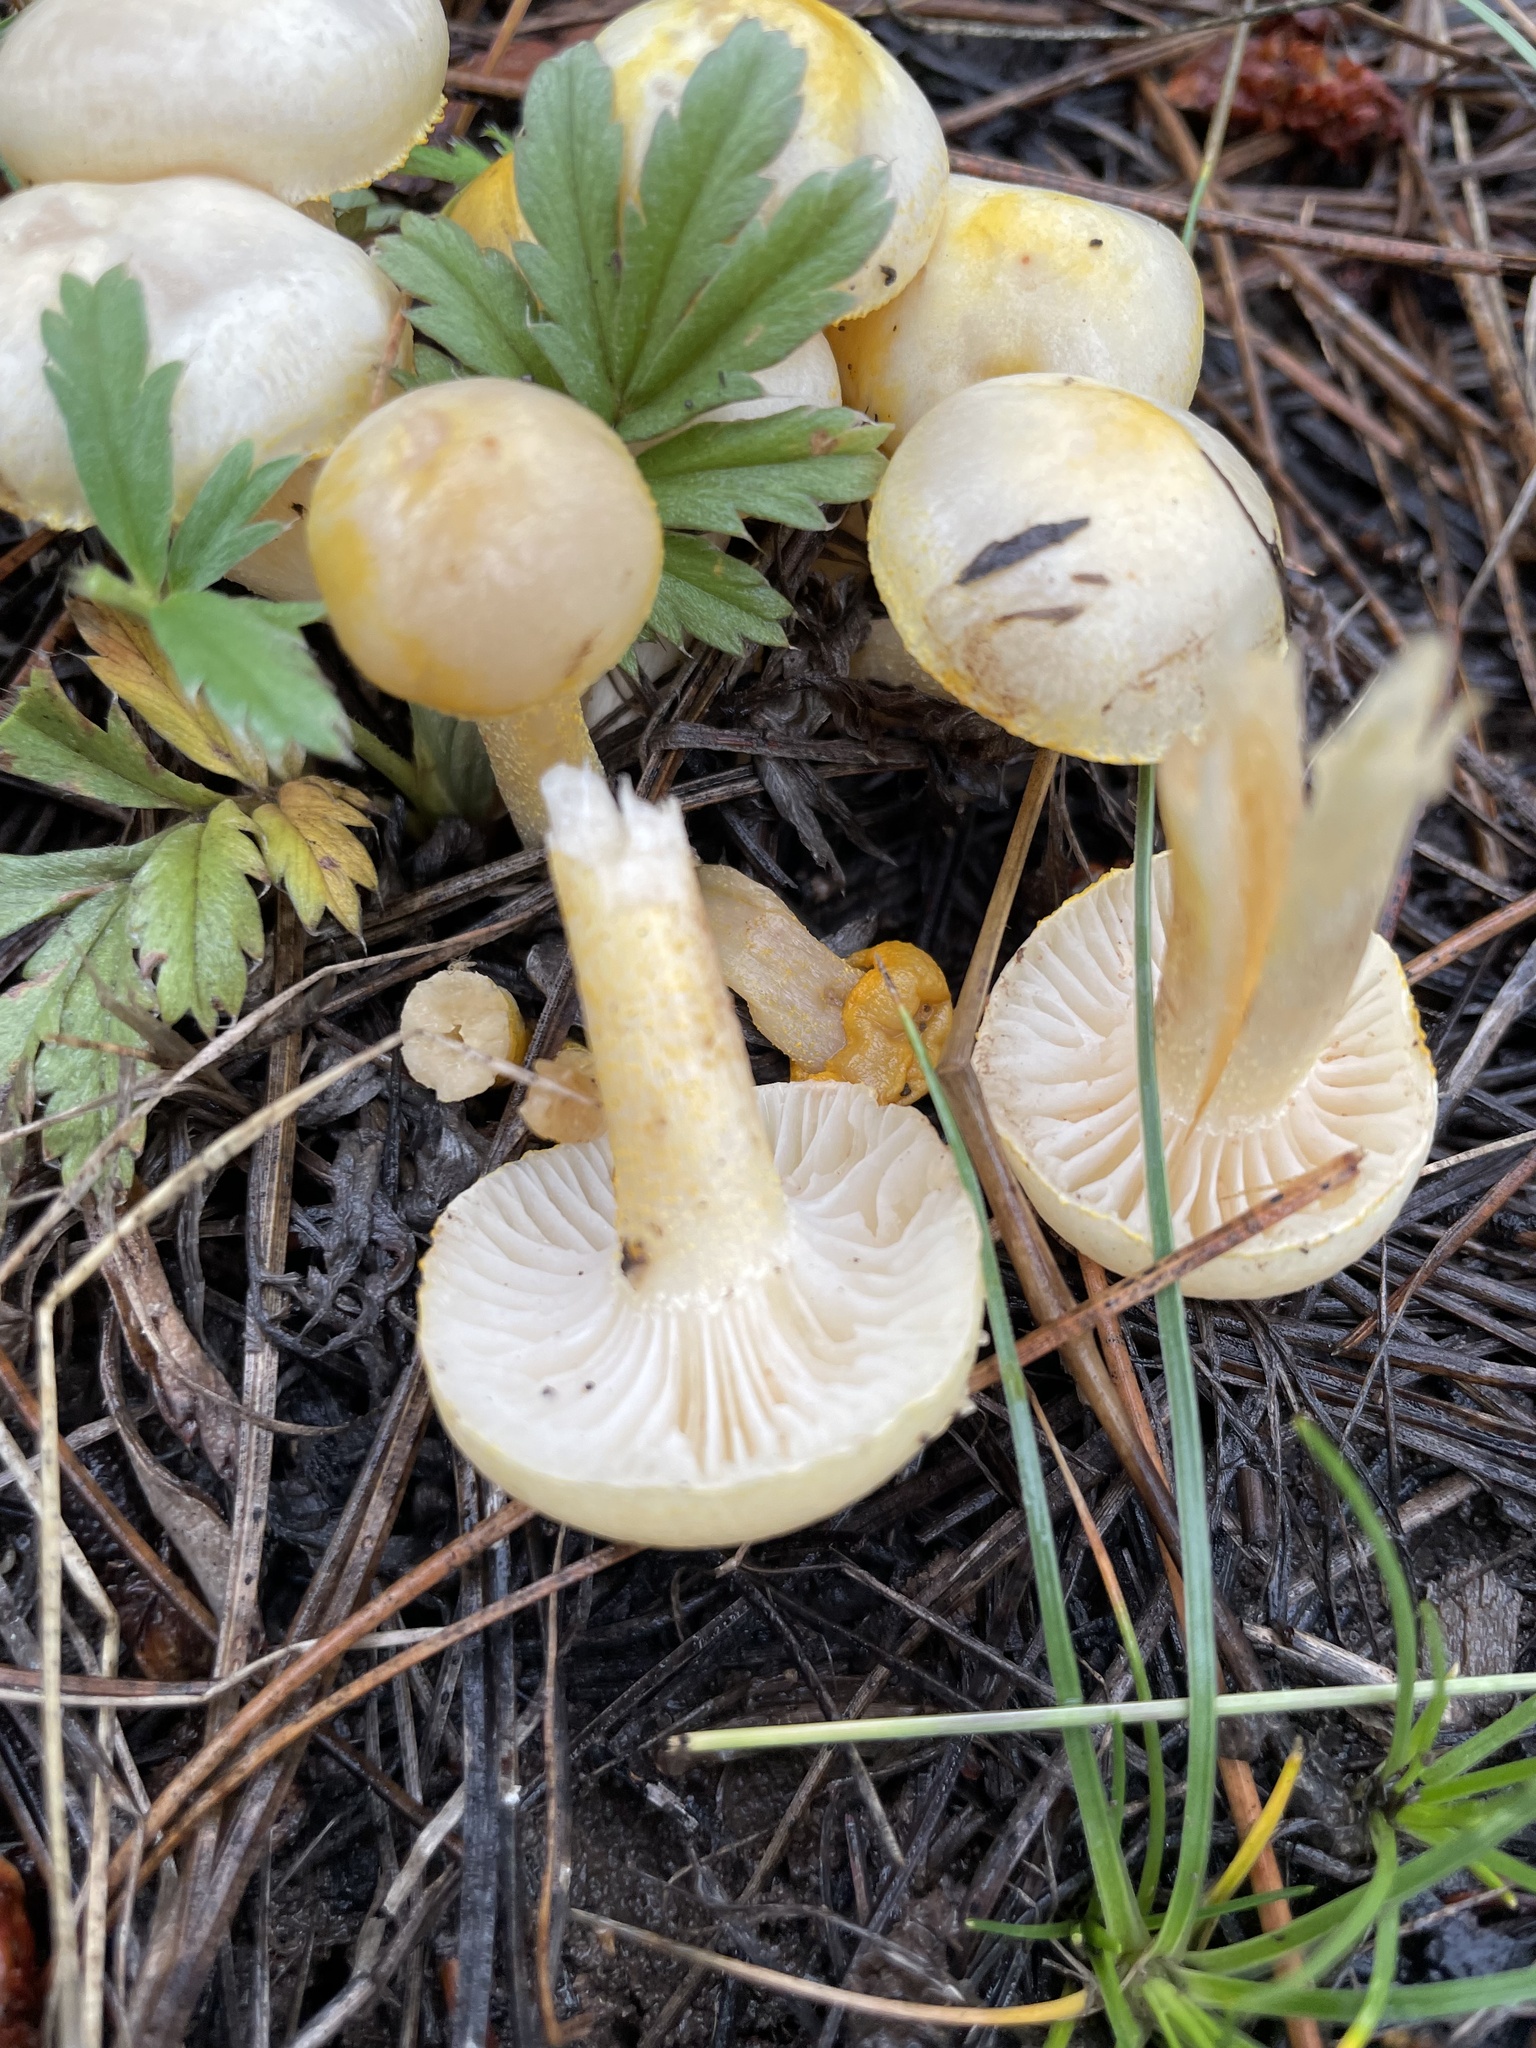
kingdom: Fungi
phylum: Basidiomycota
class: Agaricomycetes
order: Agaricales
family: Hygrophoraceae
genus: Hygrophorus
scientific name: Hygrophorus chrysodon
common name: Gold flecked woodwax
